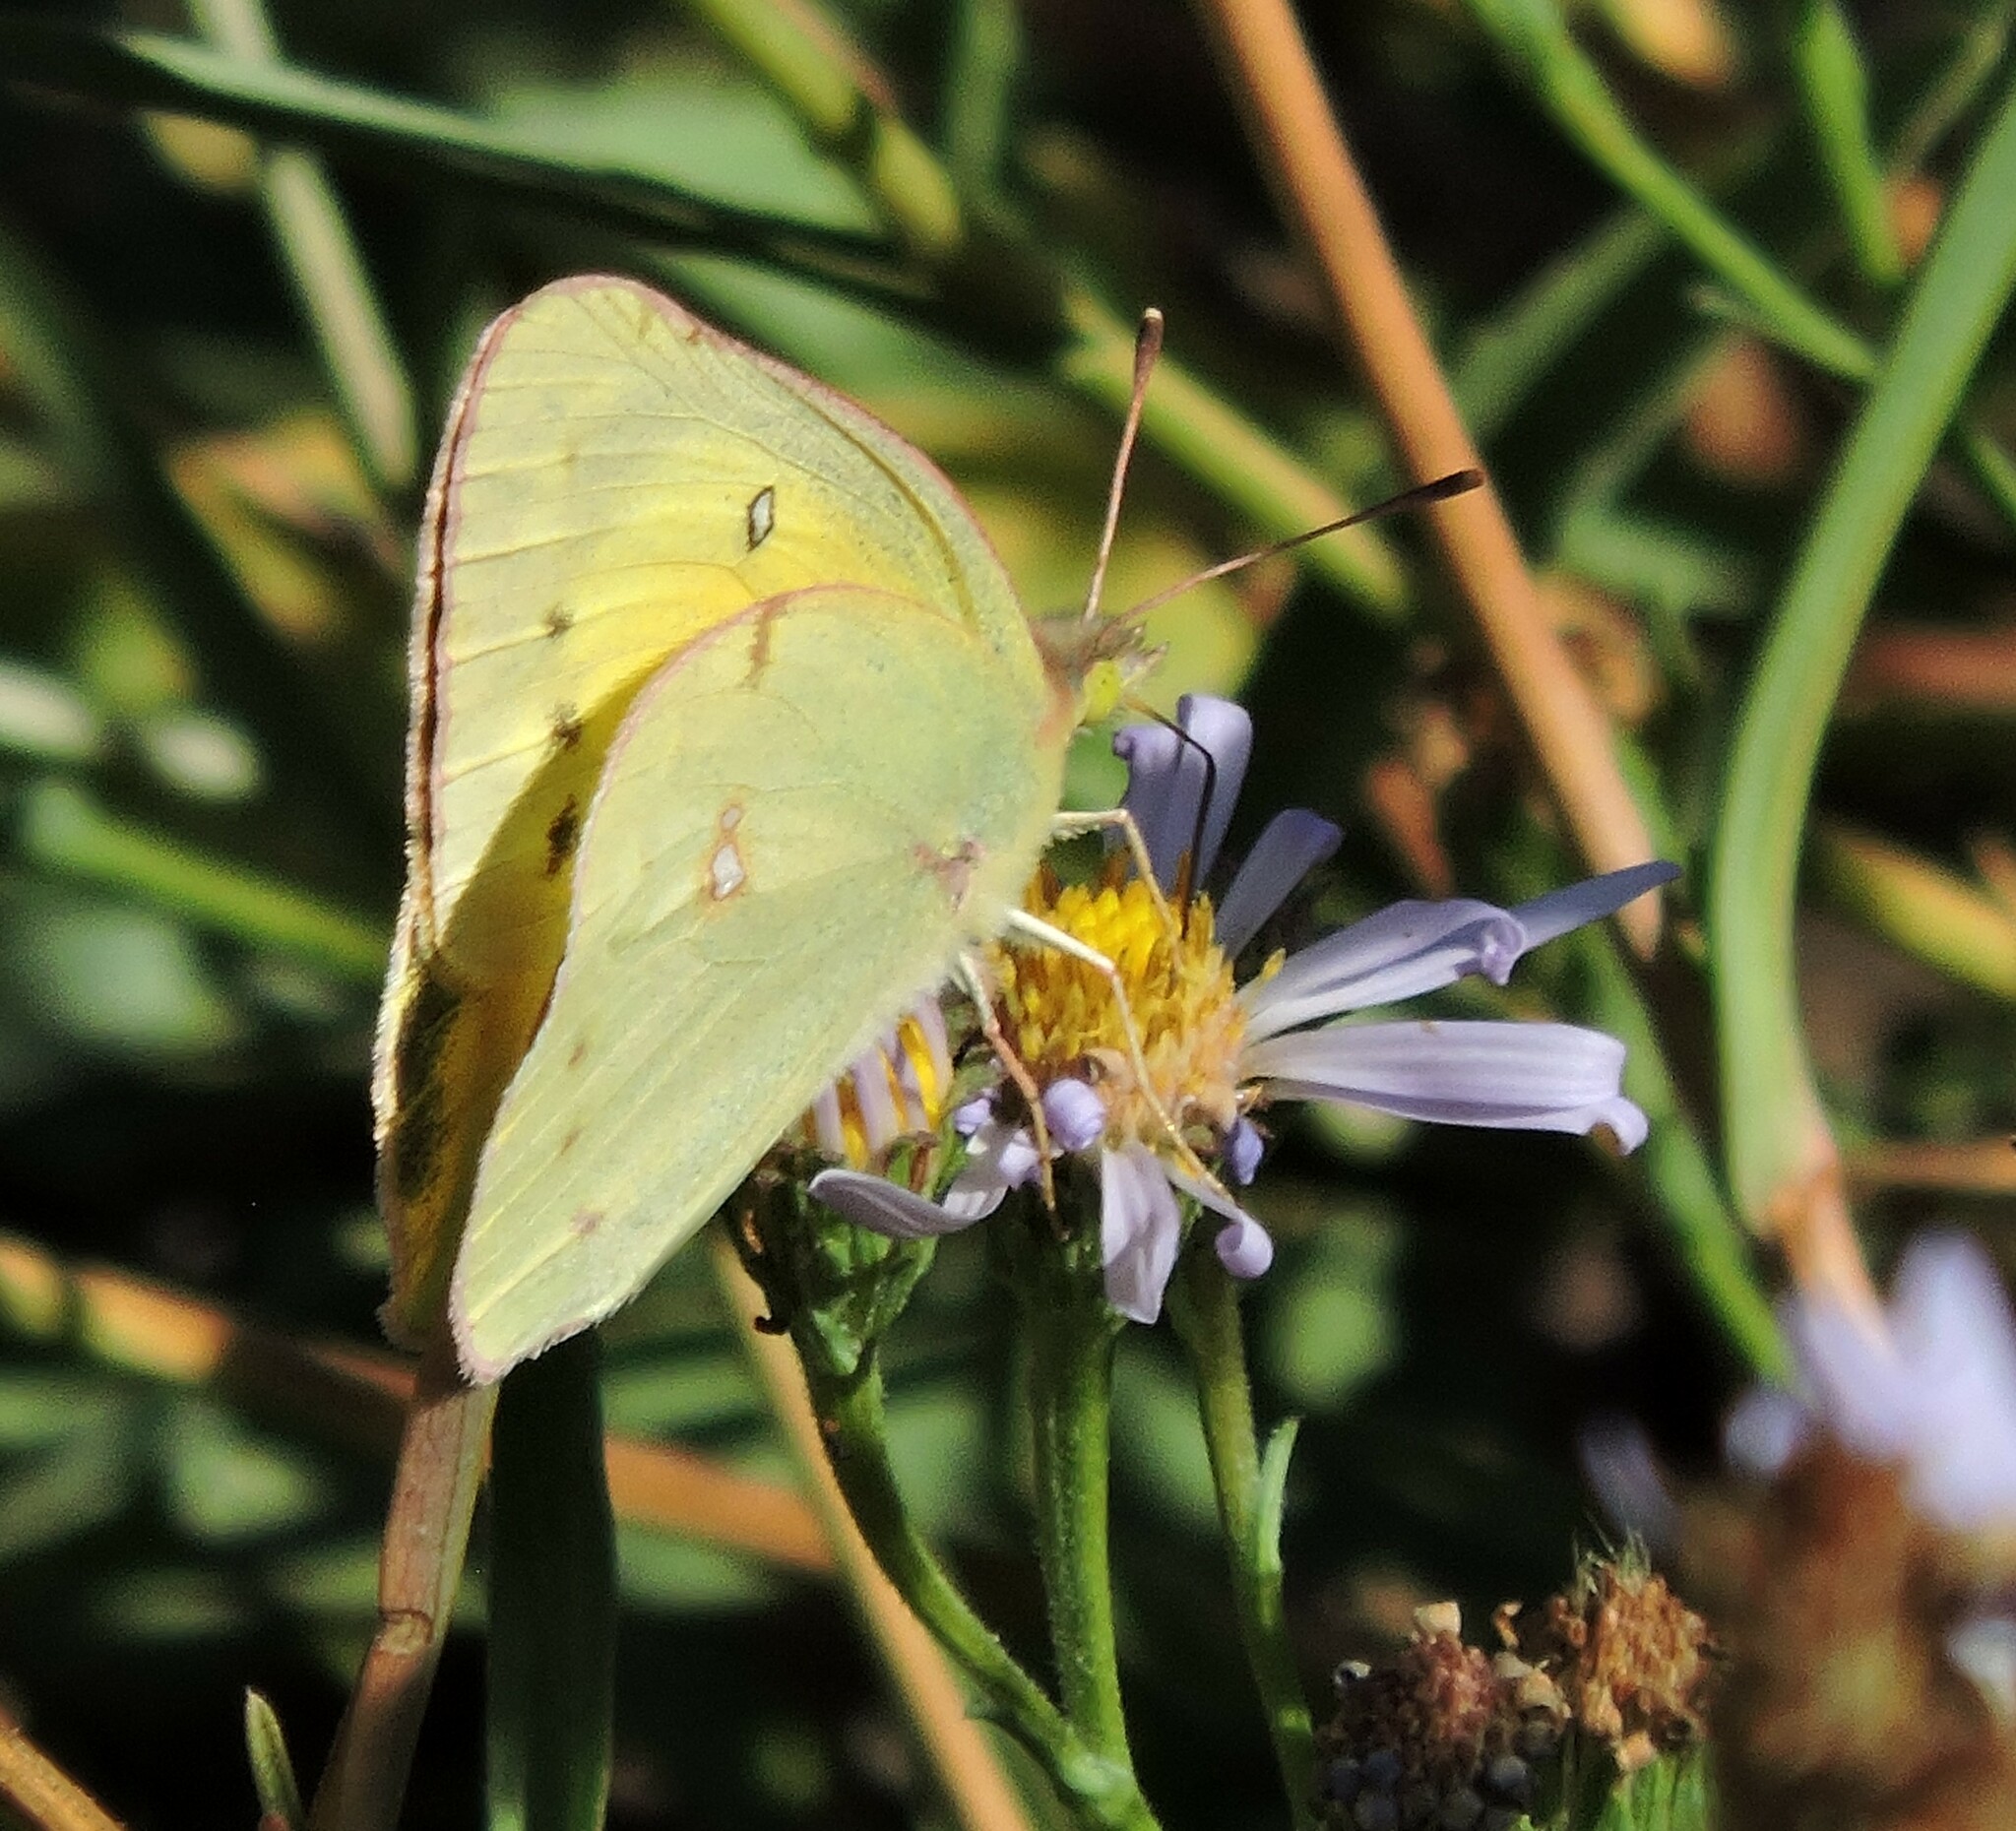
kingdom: Animalia
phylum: Arthropoda
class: Insecta
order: Lepidoptera
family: Pieridae
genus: Colias
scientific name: Colias eurytheme
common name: Alfalfa butterfly
